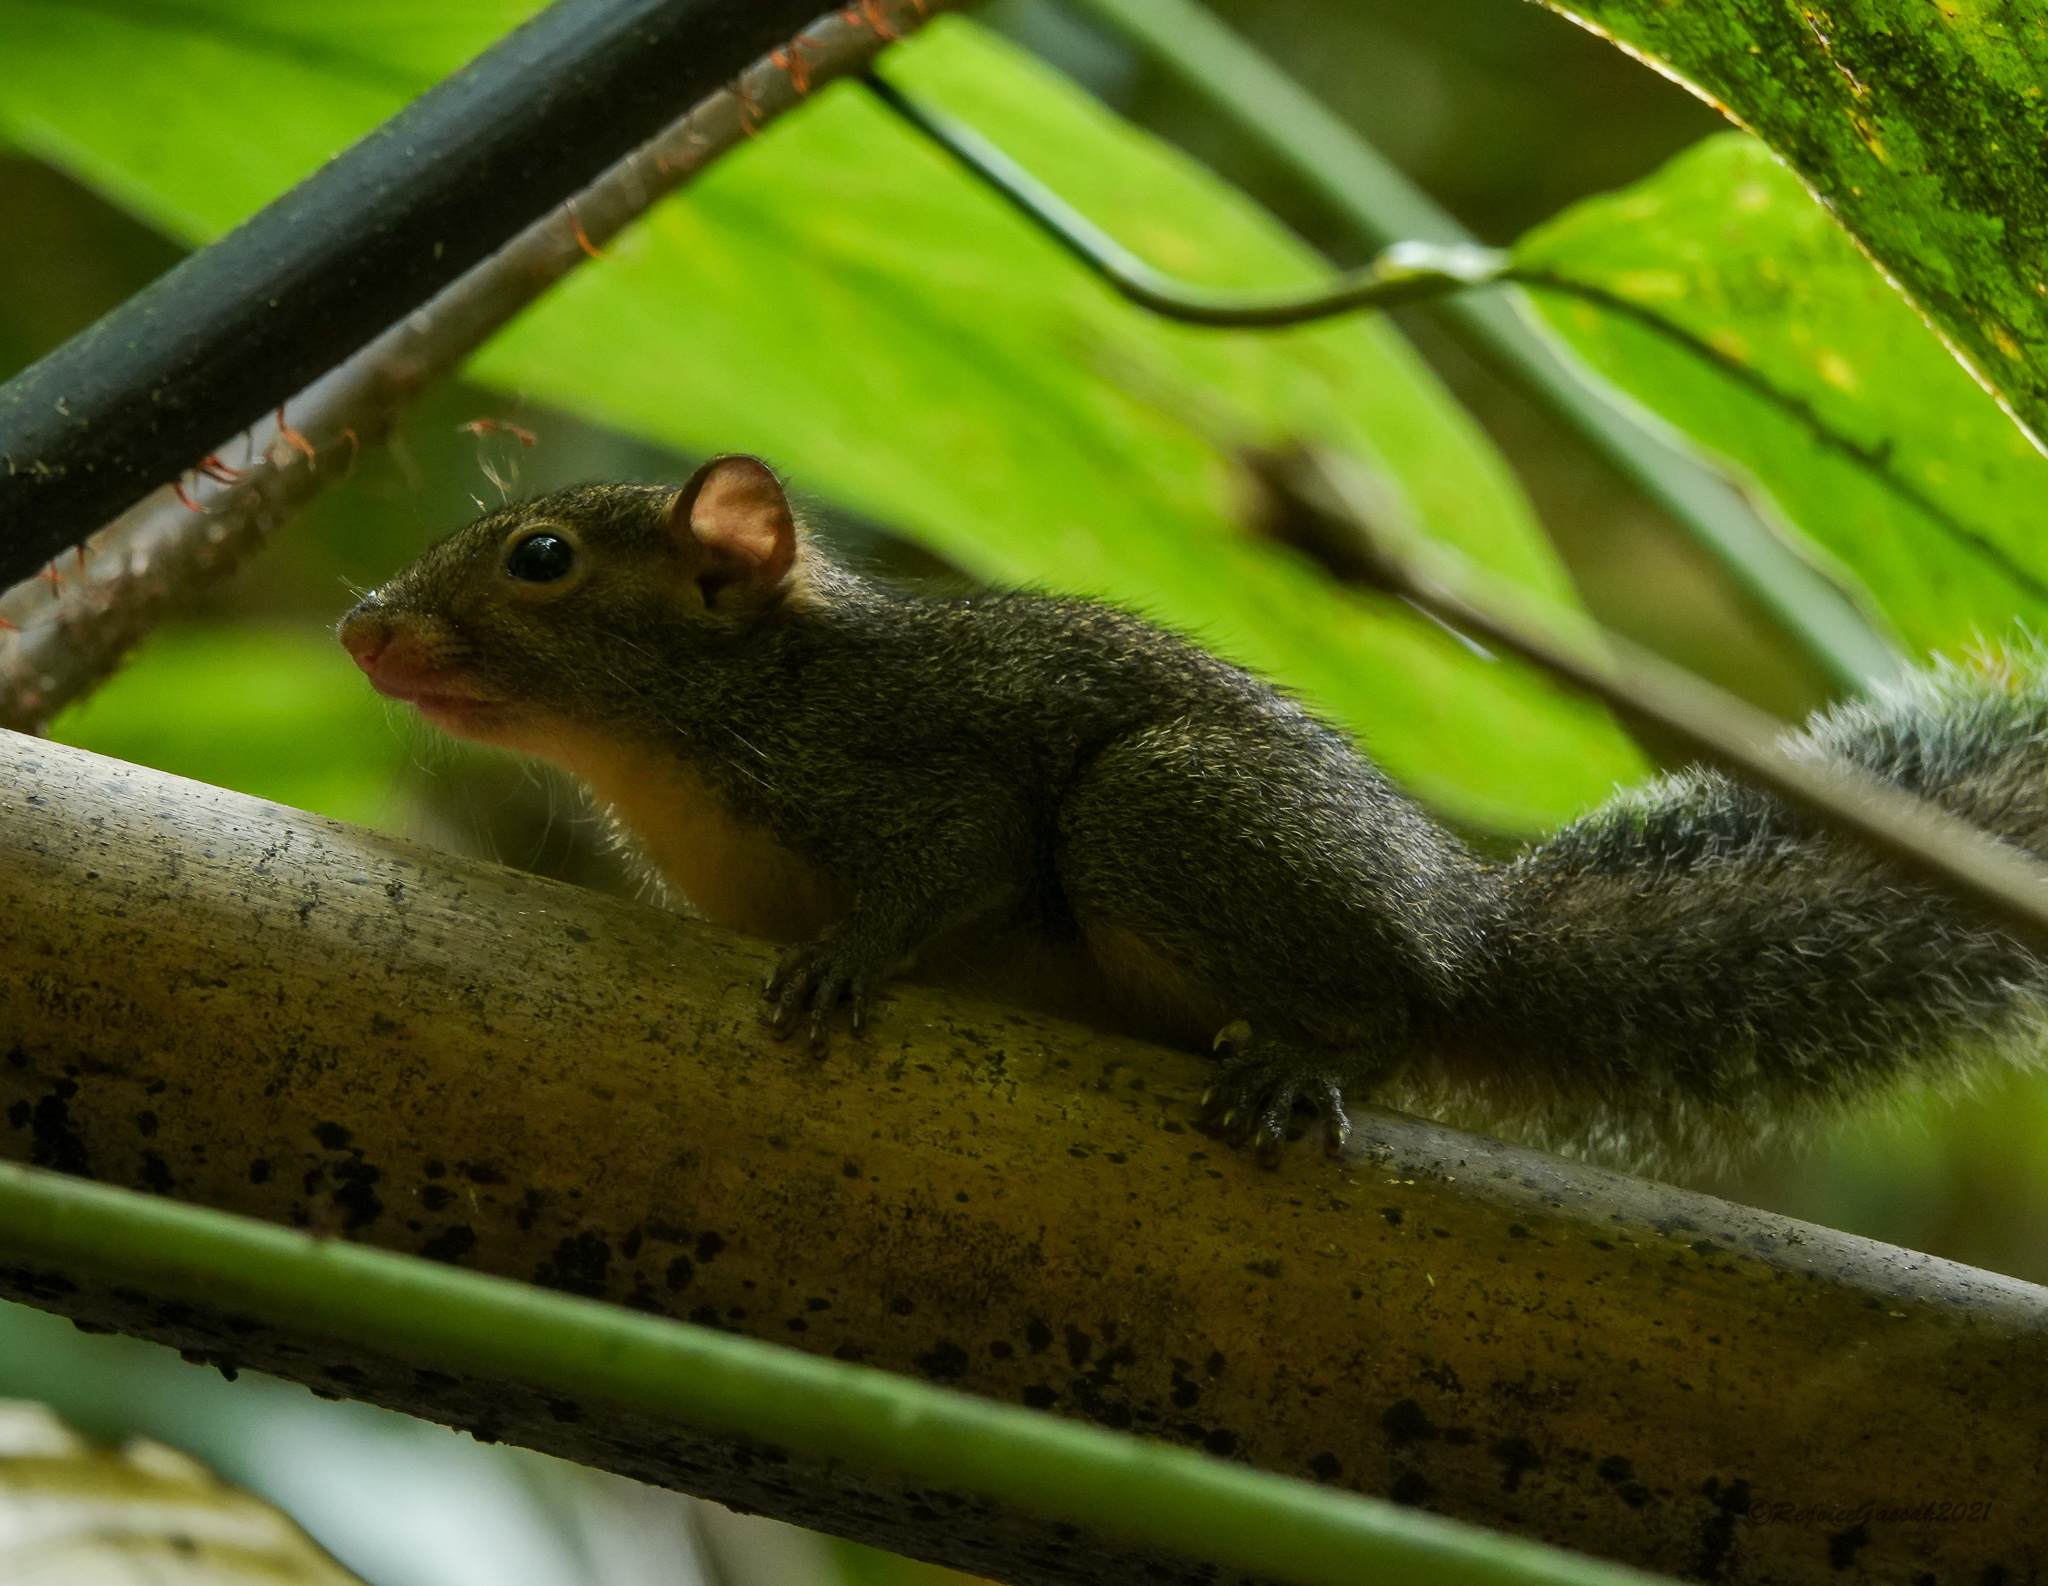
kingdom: Animalia
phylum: Chordata
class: Mammalia
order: Rodentia
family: Sciuridae
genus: Dremomys
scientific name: Dremomys lokriah
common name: Orange-bellied himalayan squirrel
